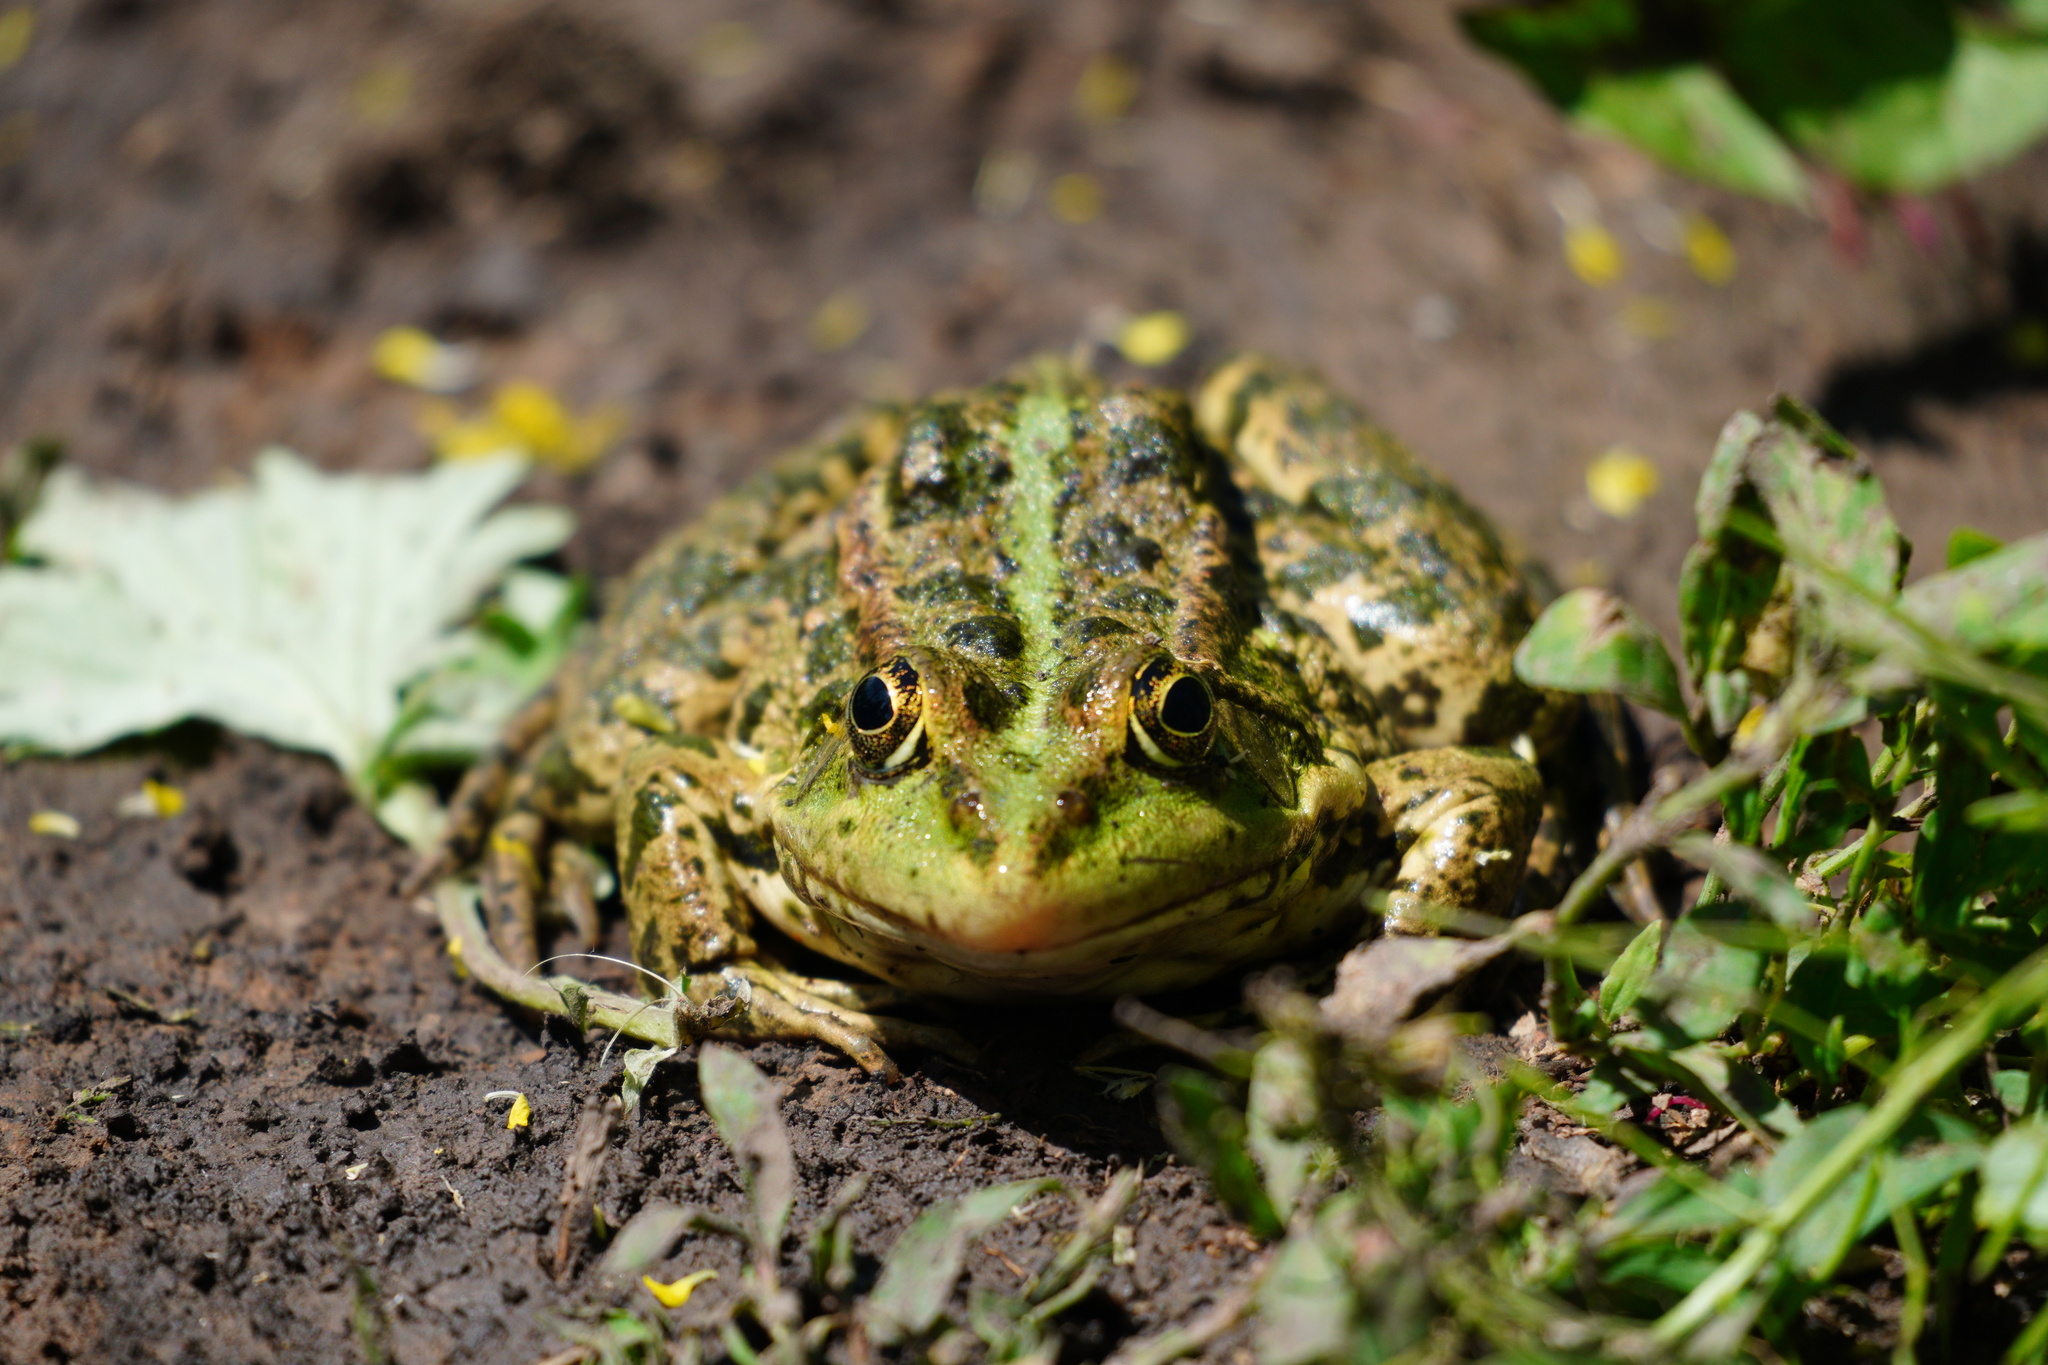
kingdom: Animalia
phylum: Chordata
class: Amphibia
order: Anura
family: Ranidae
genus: Pelophylax
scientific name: Pelophylax ridibundus
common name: Marsh frog
